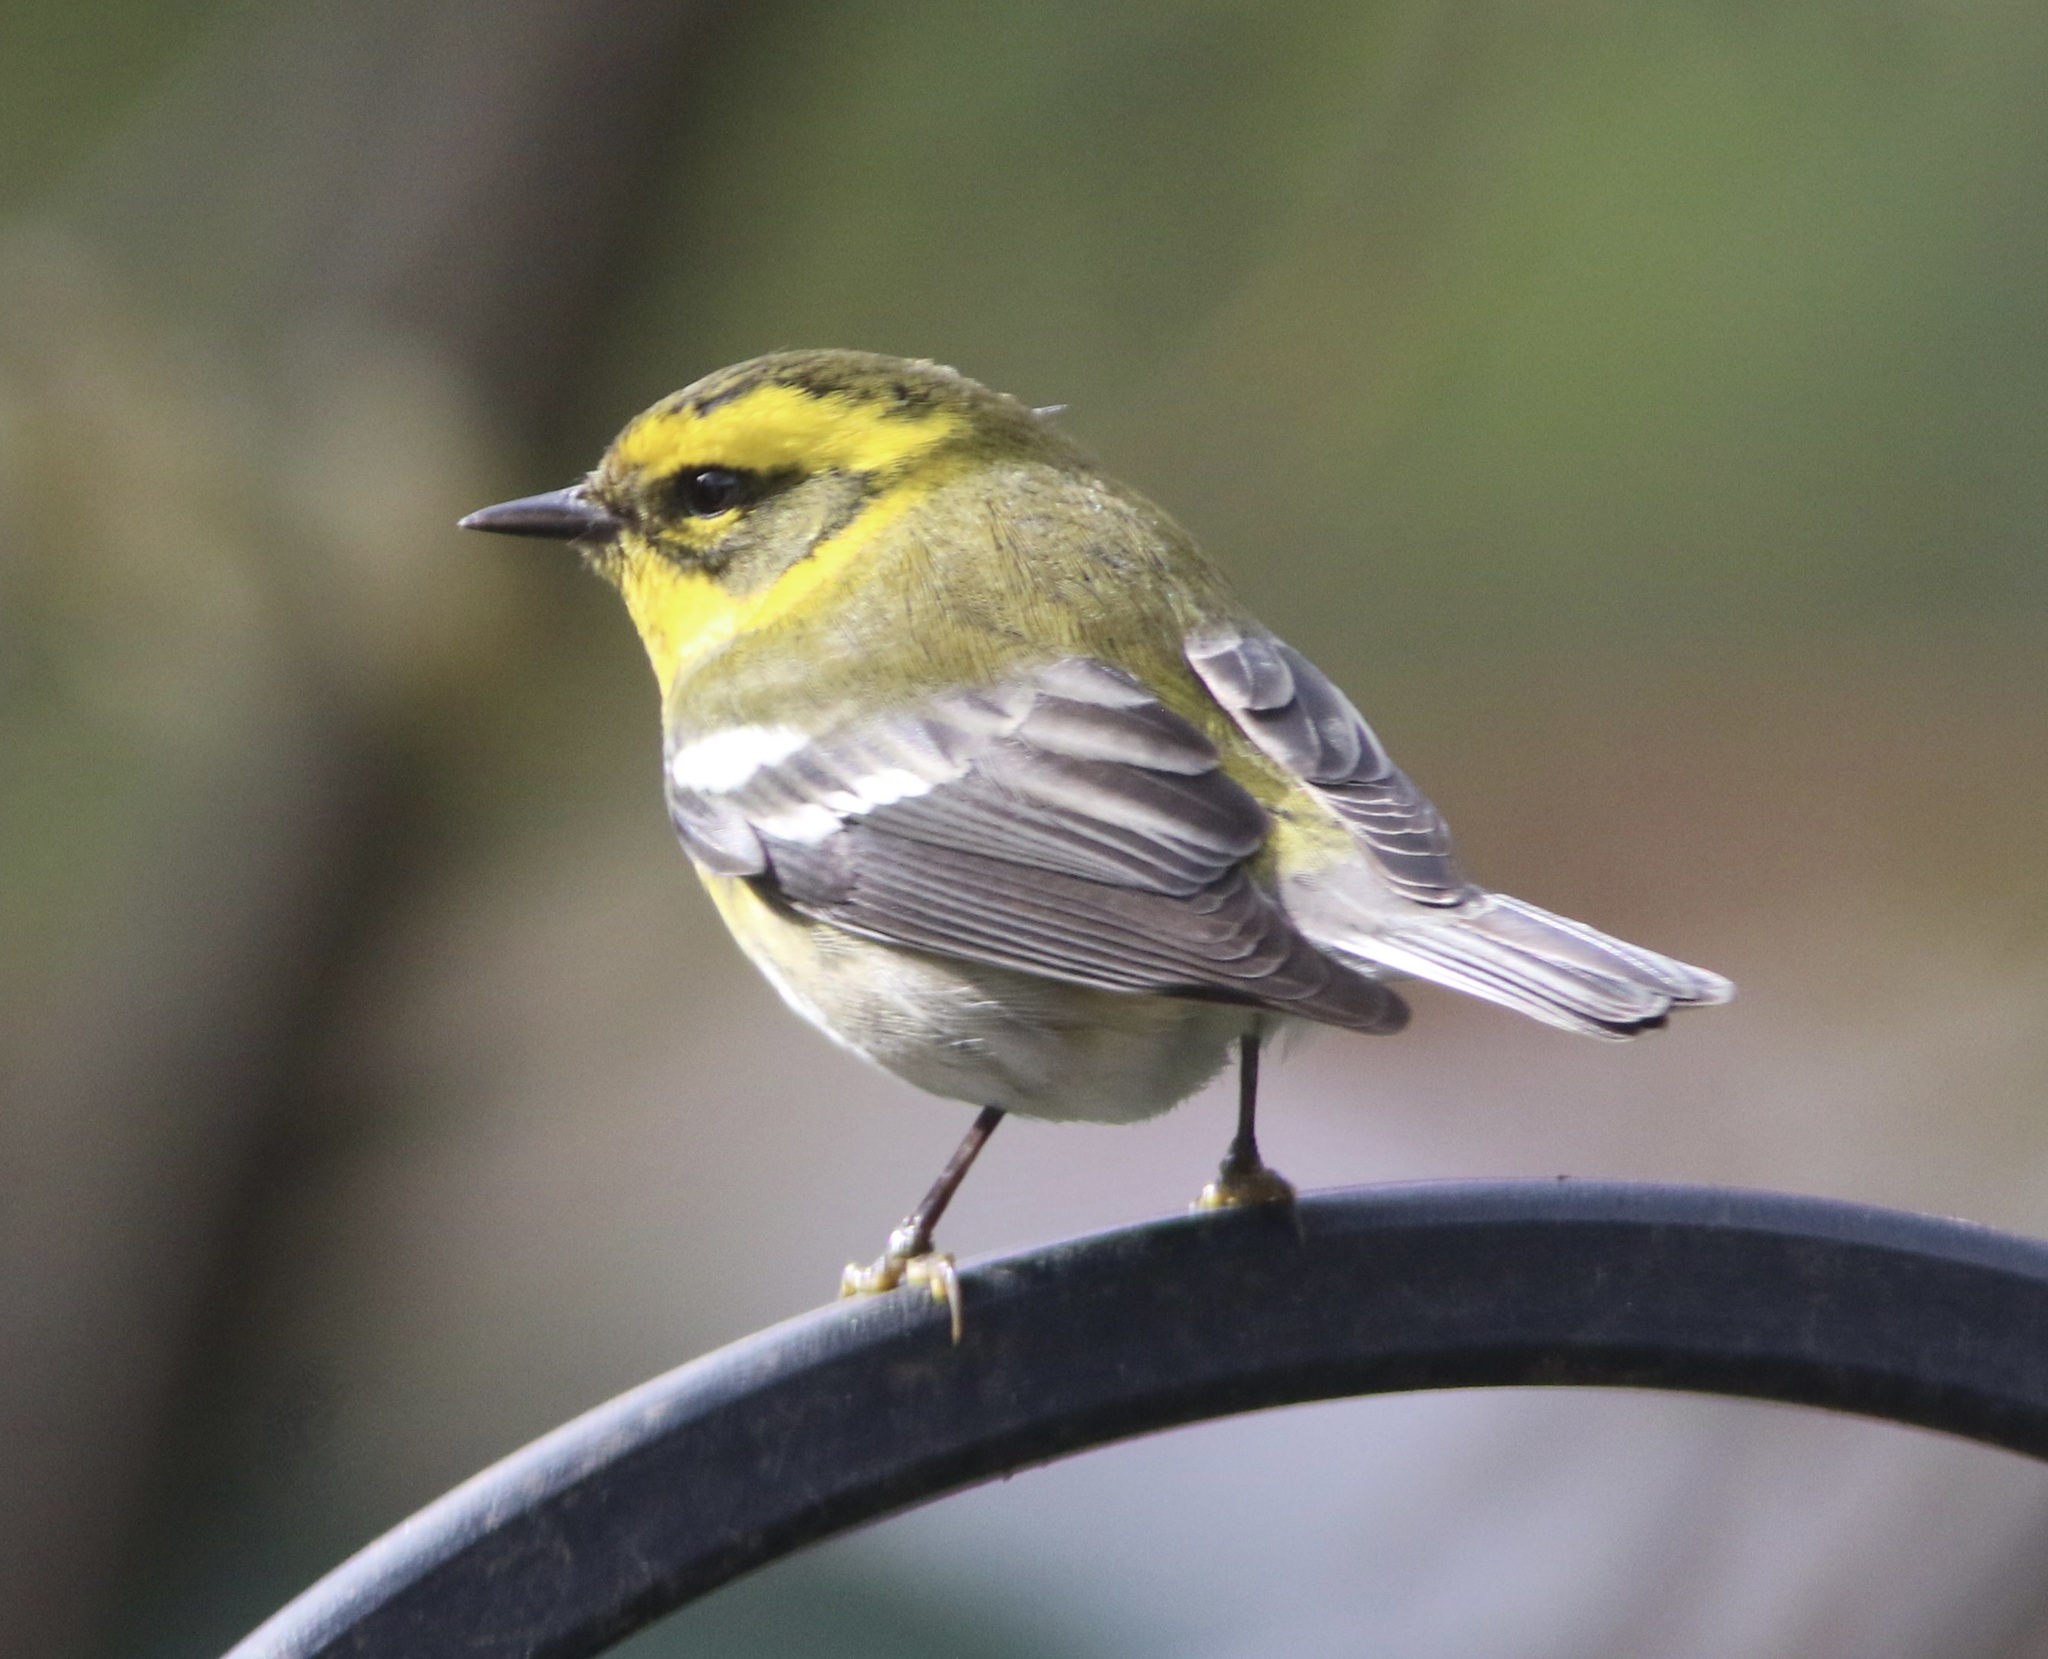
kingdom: Animalia
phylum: Chordata
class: Aves
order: Passeriformes
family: Parulidae
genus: Setophaga
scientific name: Setophaga townsendi
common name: Townsend's warbler
